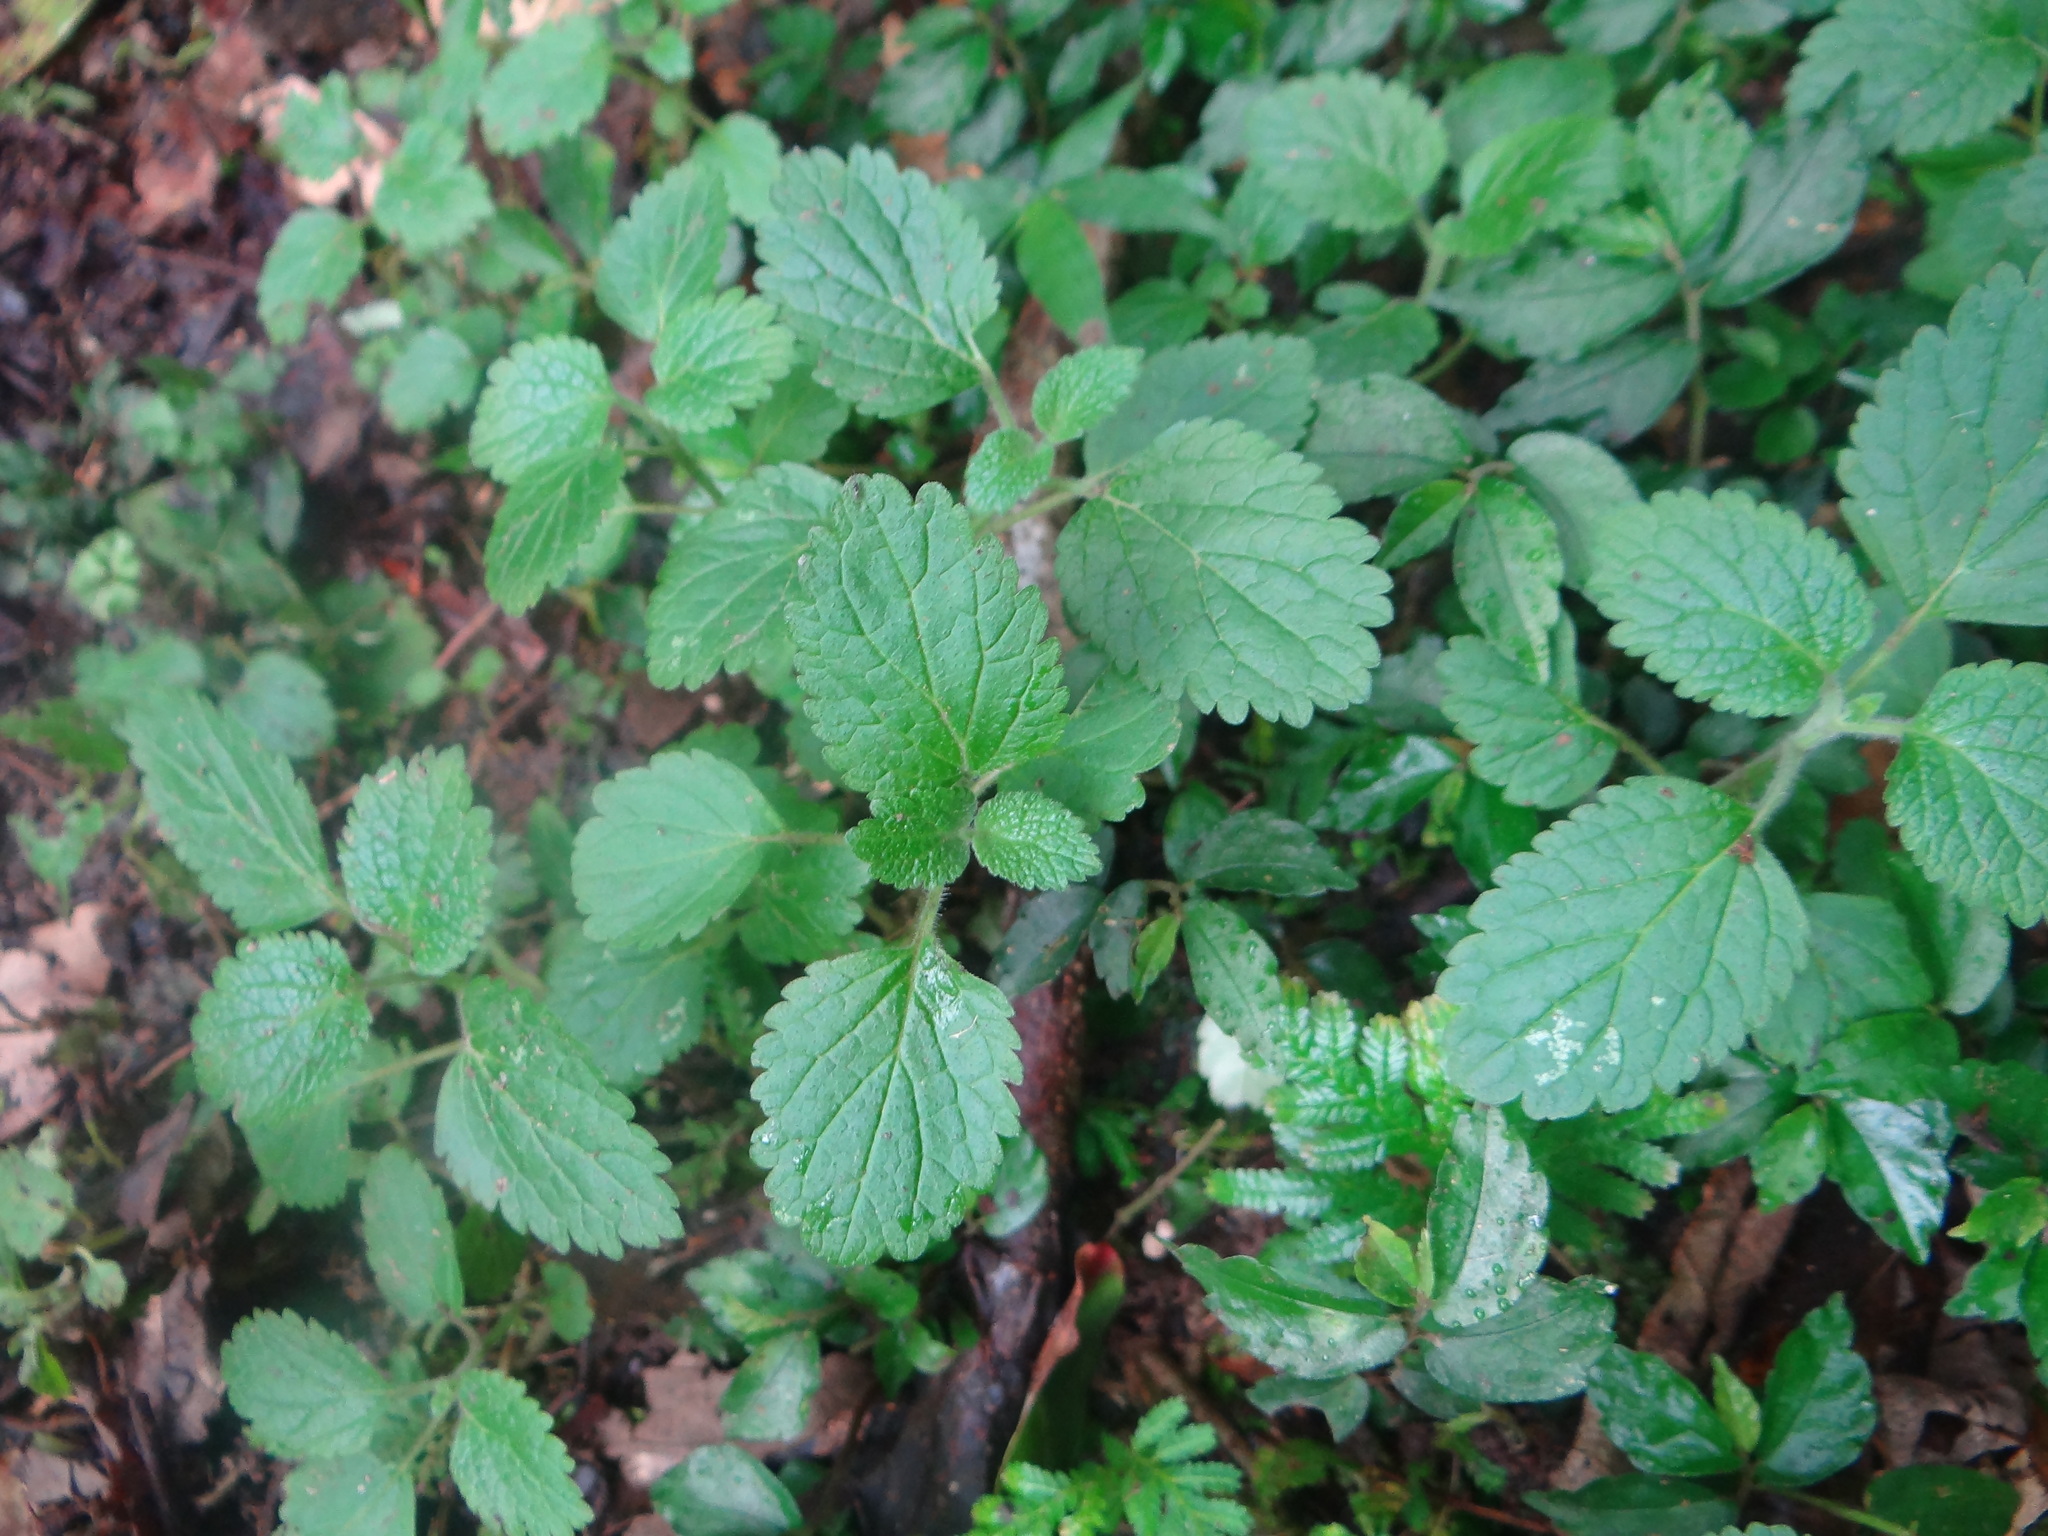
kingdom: Plantae
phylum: Tracheophyta
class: Magnoliopsida
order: Lamiales
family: Lamiaceae
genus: Teucrium
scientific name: Teucrium viscidum
